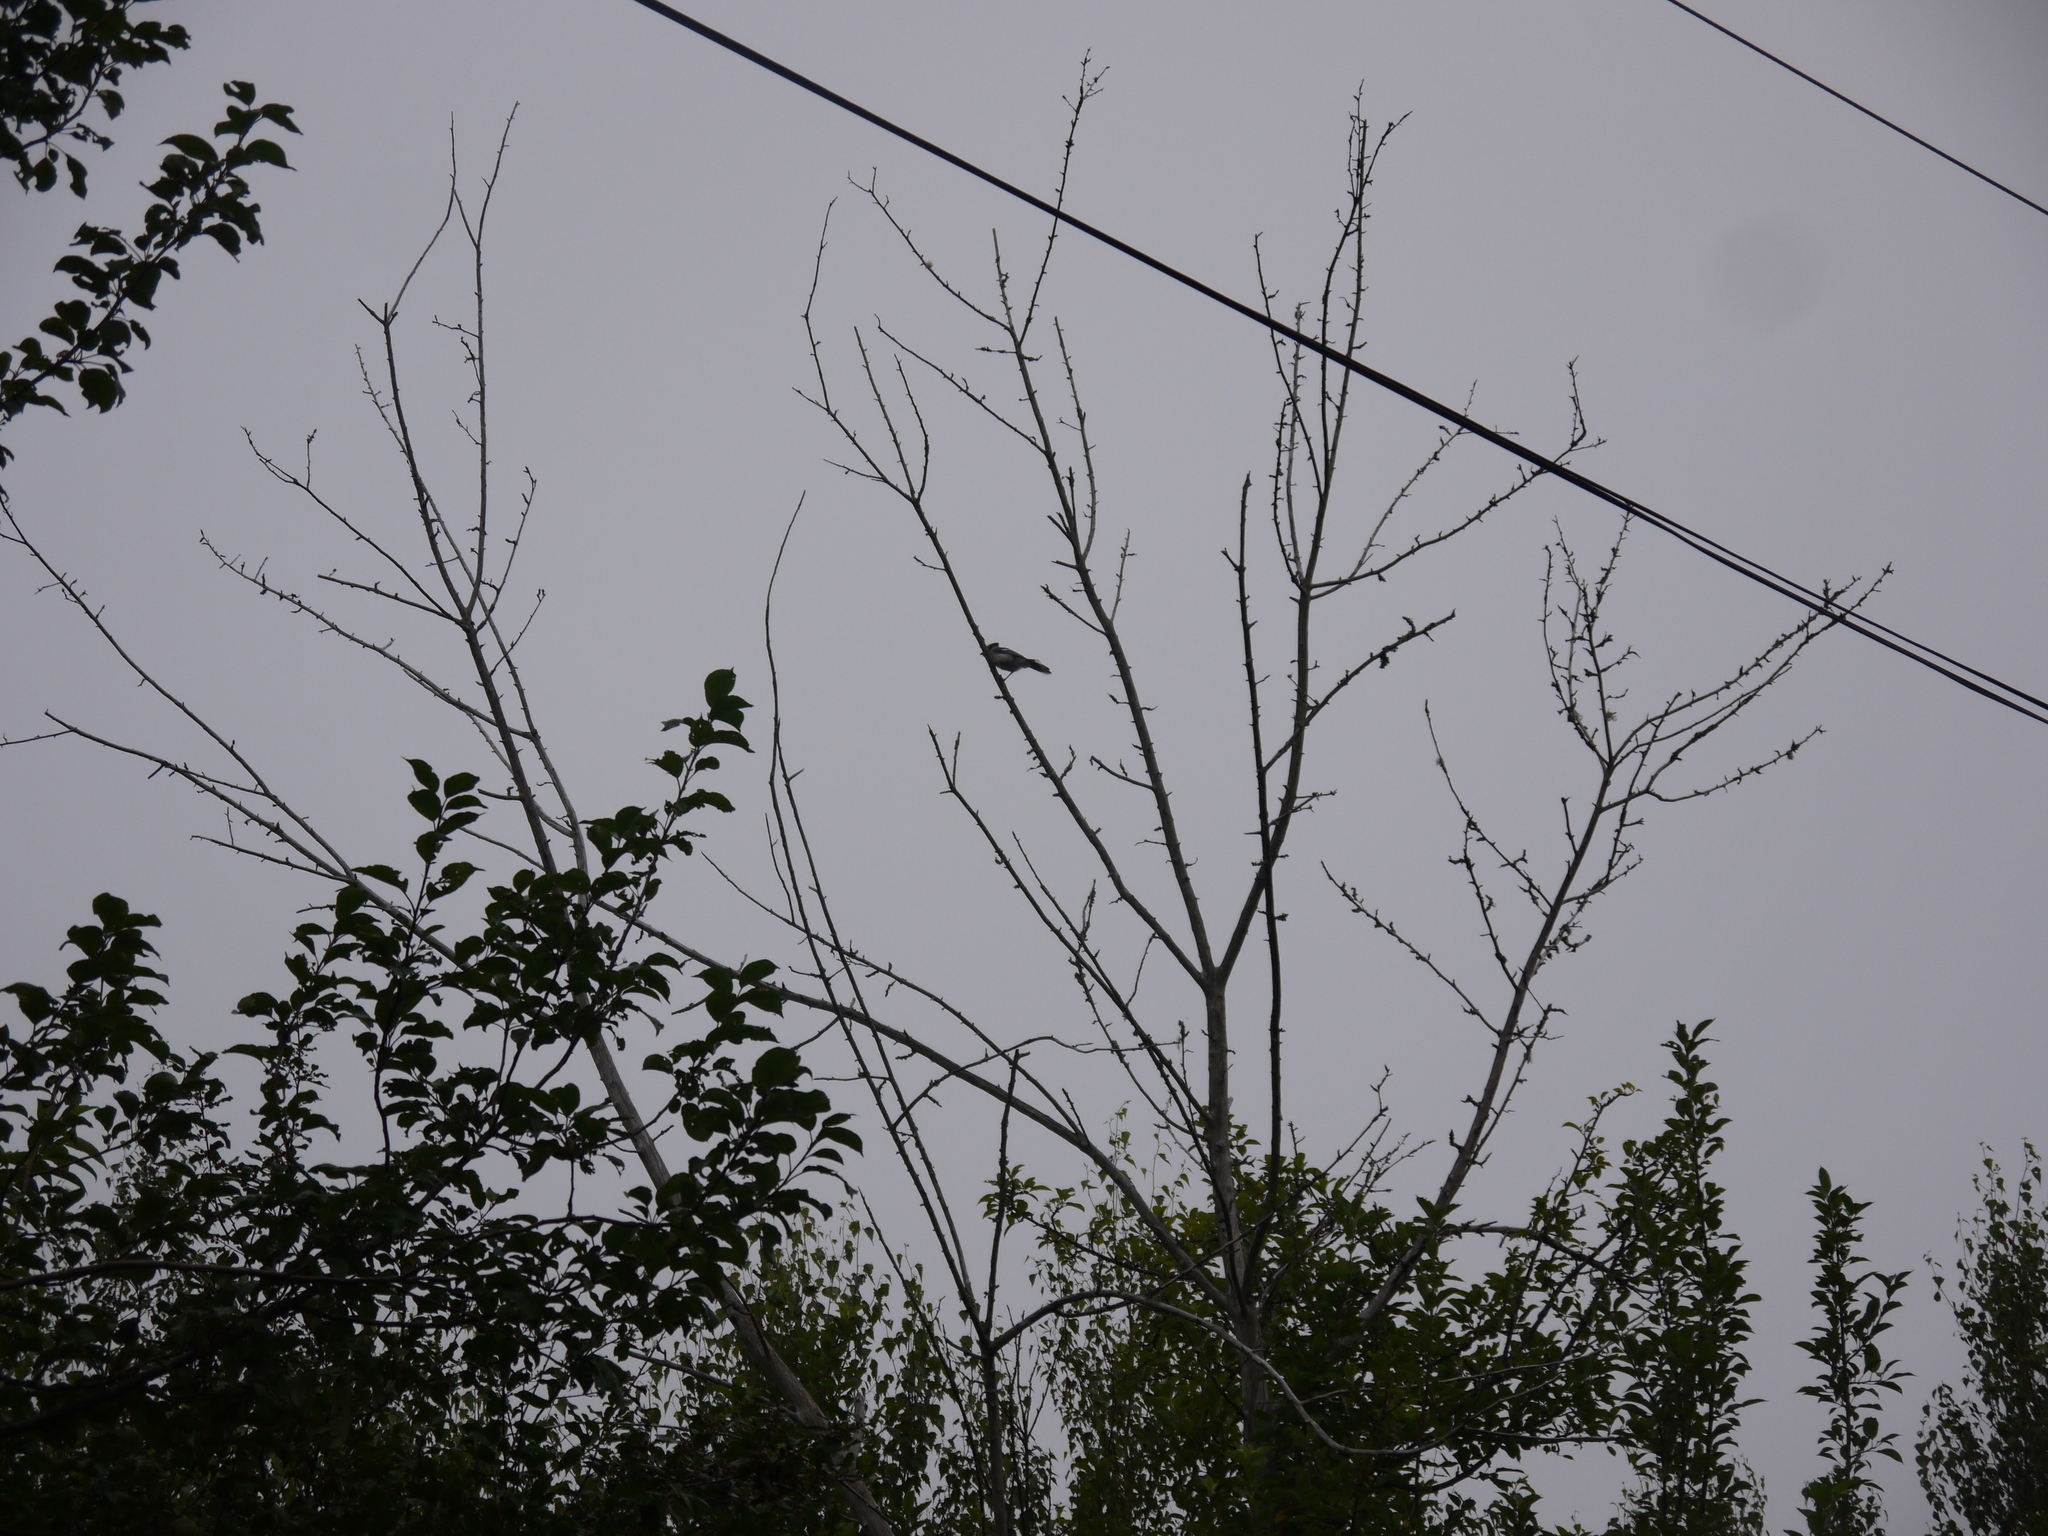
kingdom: Animalia
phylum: Chordata
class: Aves
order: Passeriformes
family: Corvidae
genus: Cyanocitta
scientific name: Cyanocitta cristata
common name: Blue jay
